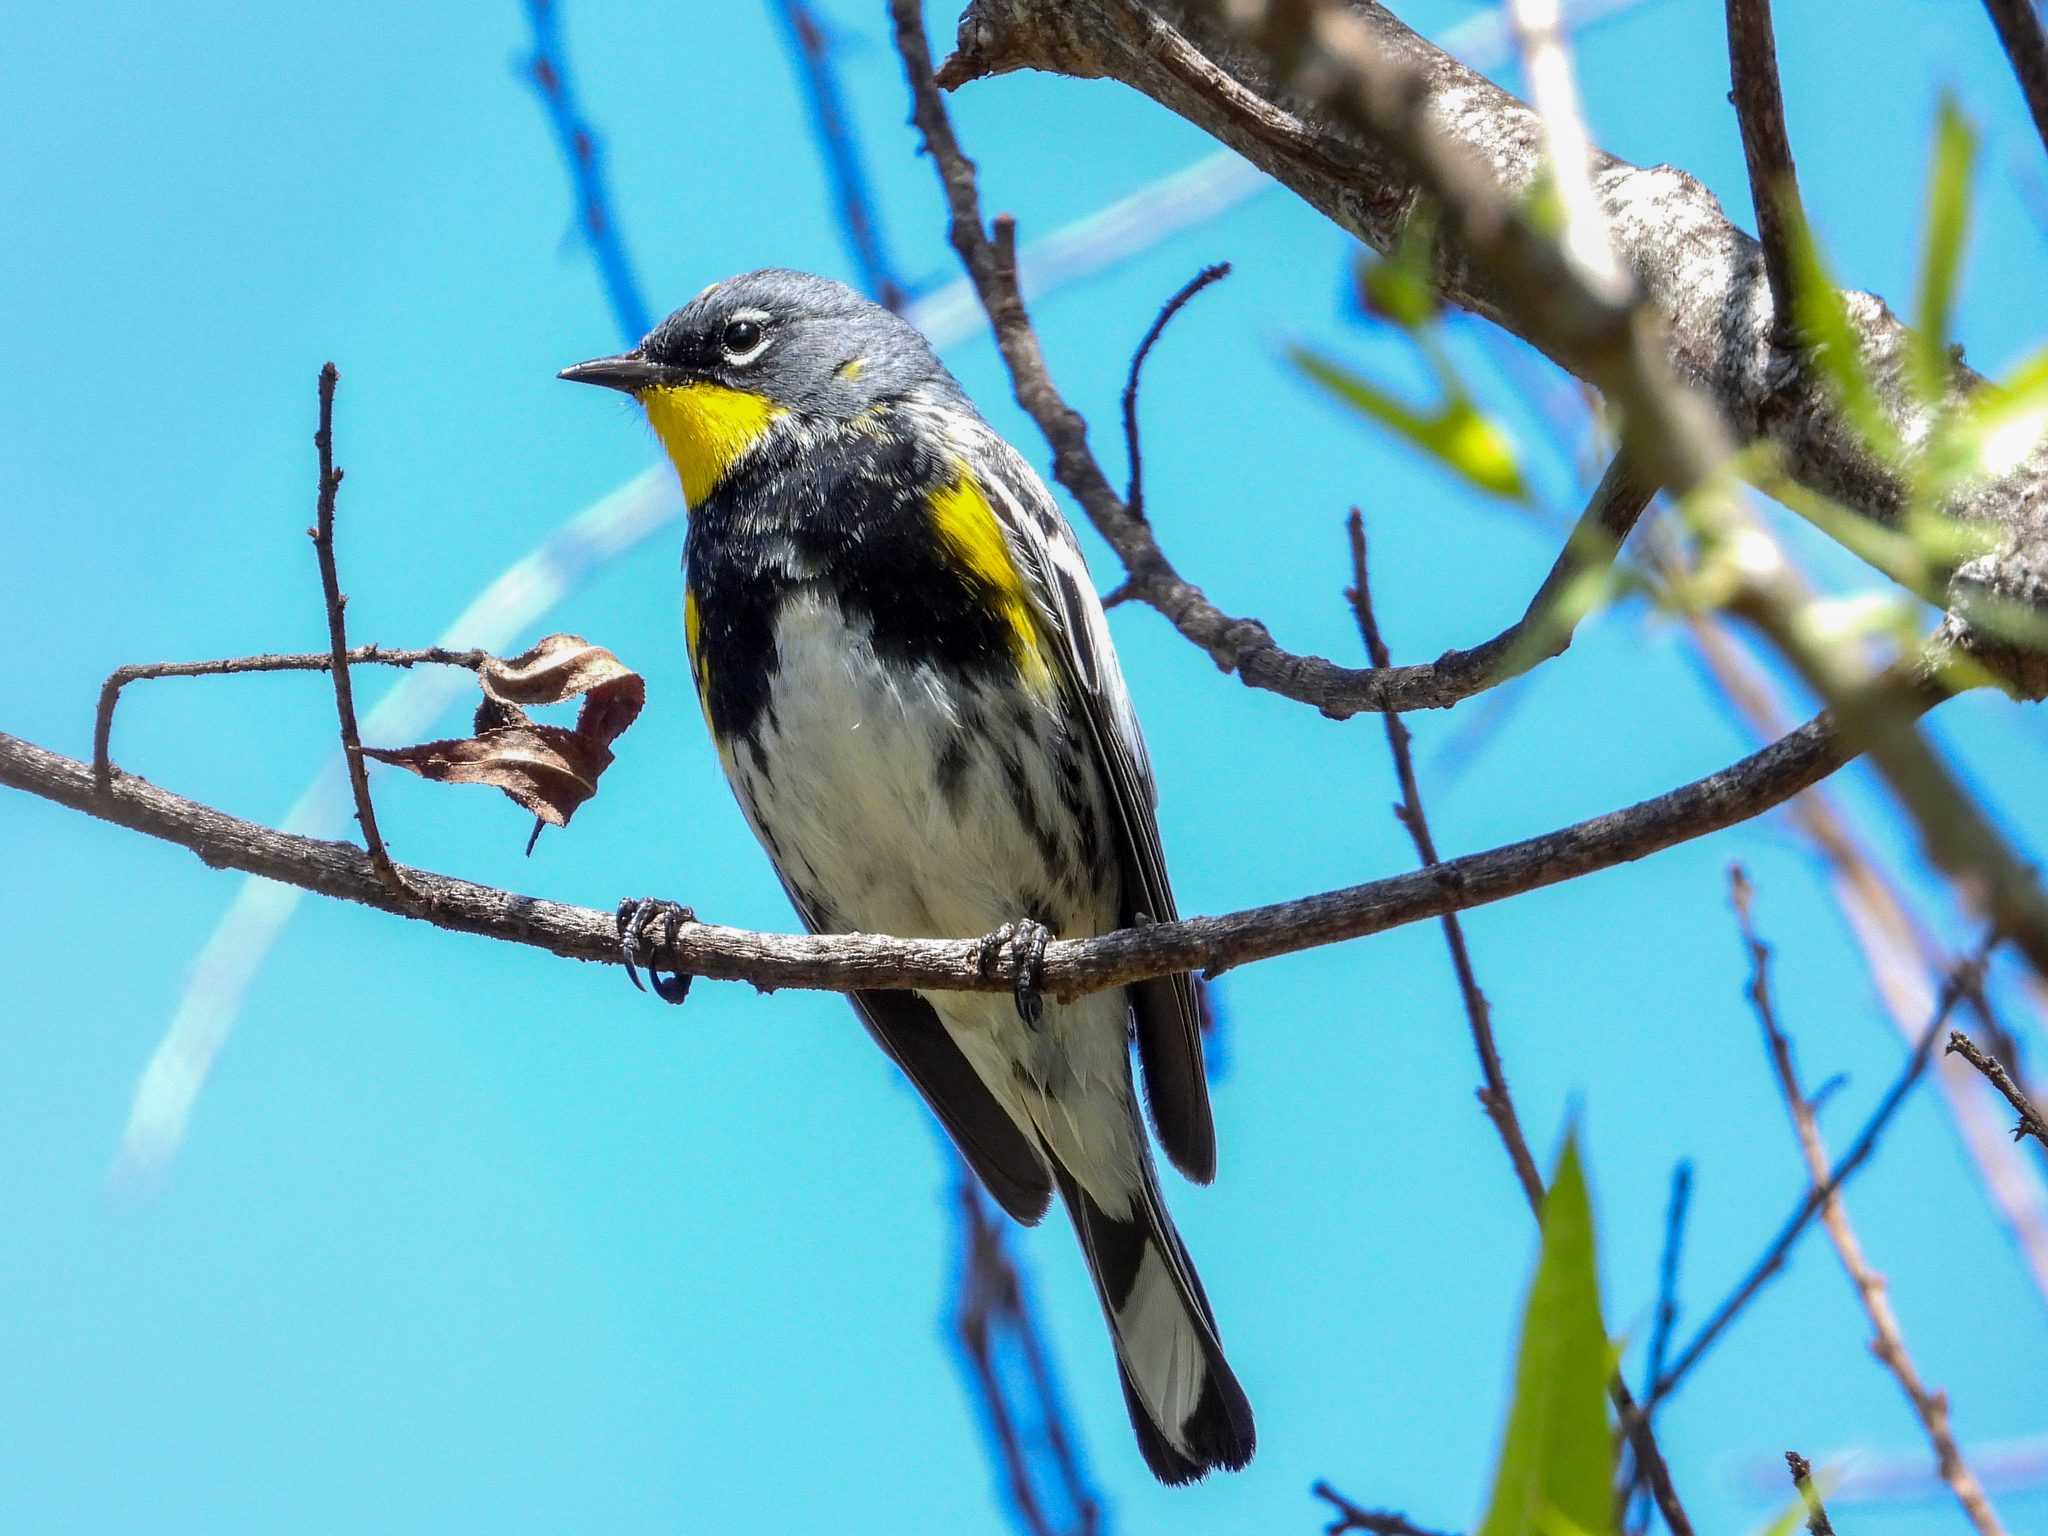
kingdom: Animalia
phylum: Chordata
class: Aves
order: Passeriformes
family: Parulidae
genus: Setophaga
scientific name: Setophaga auduboni
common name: Audubon's warbler
